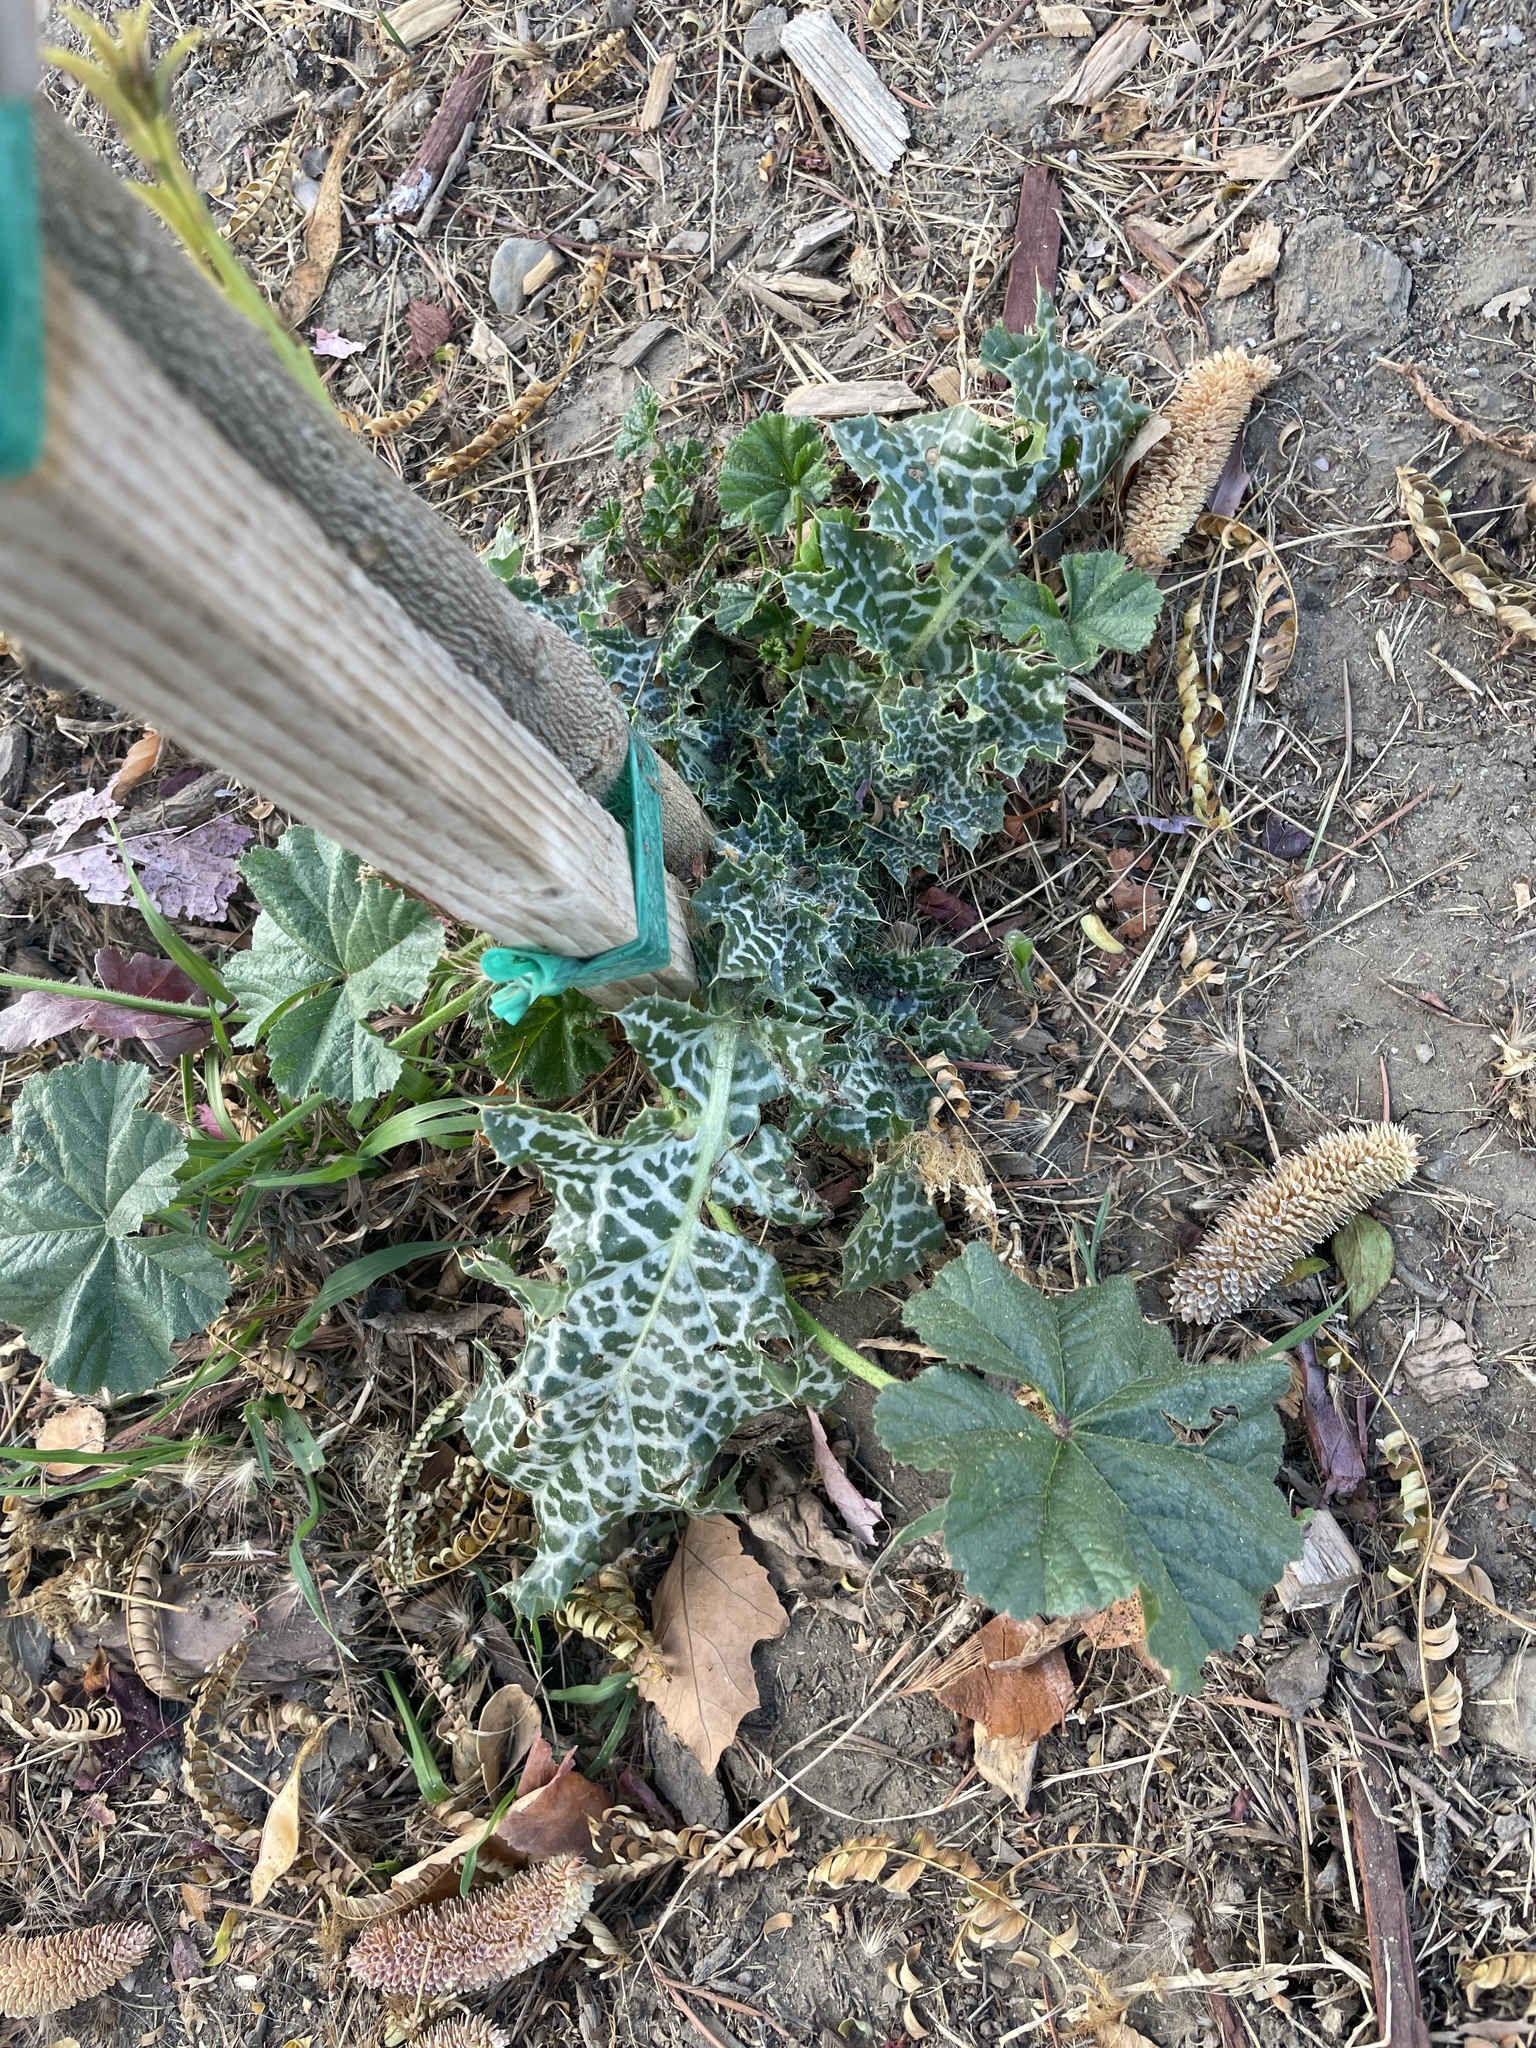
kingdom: Plantae
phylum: Tracheophyta
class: Magnoliopsida
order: Asterales
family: Asteraceae
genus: Silybum
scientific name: Silybum marianum
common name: Milk thistle
